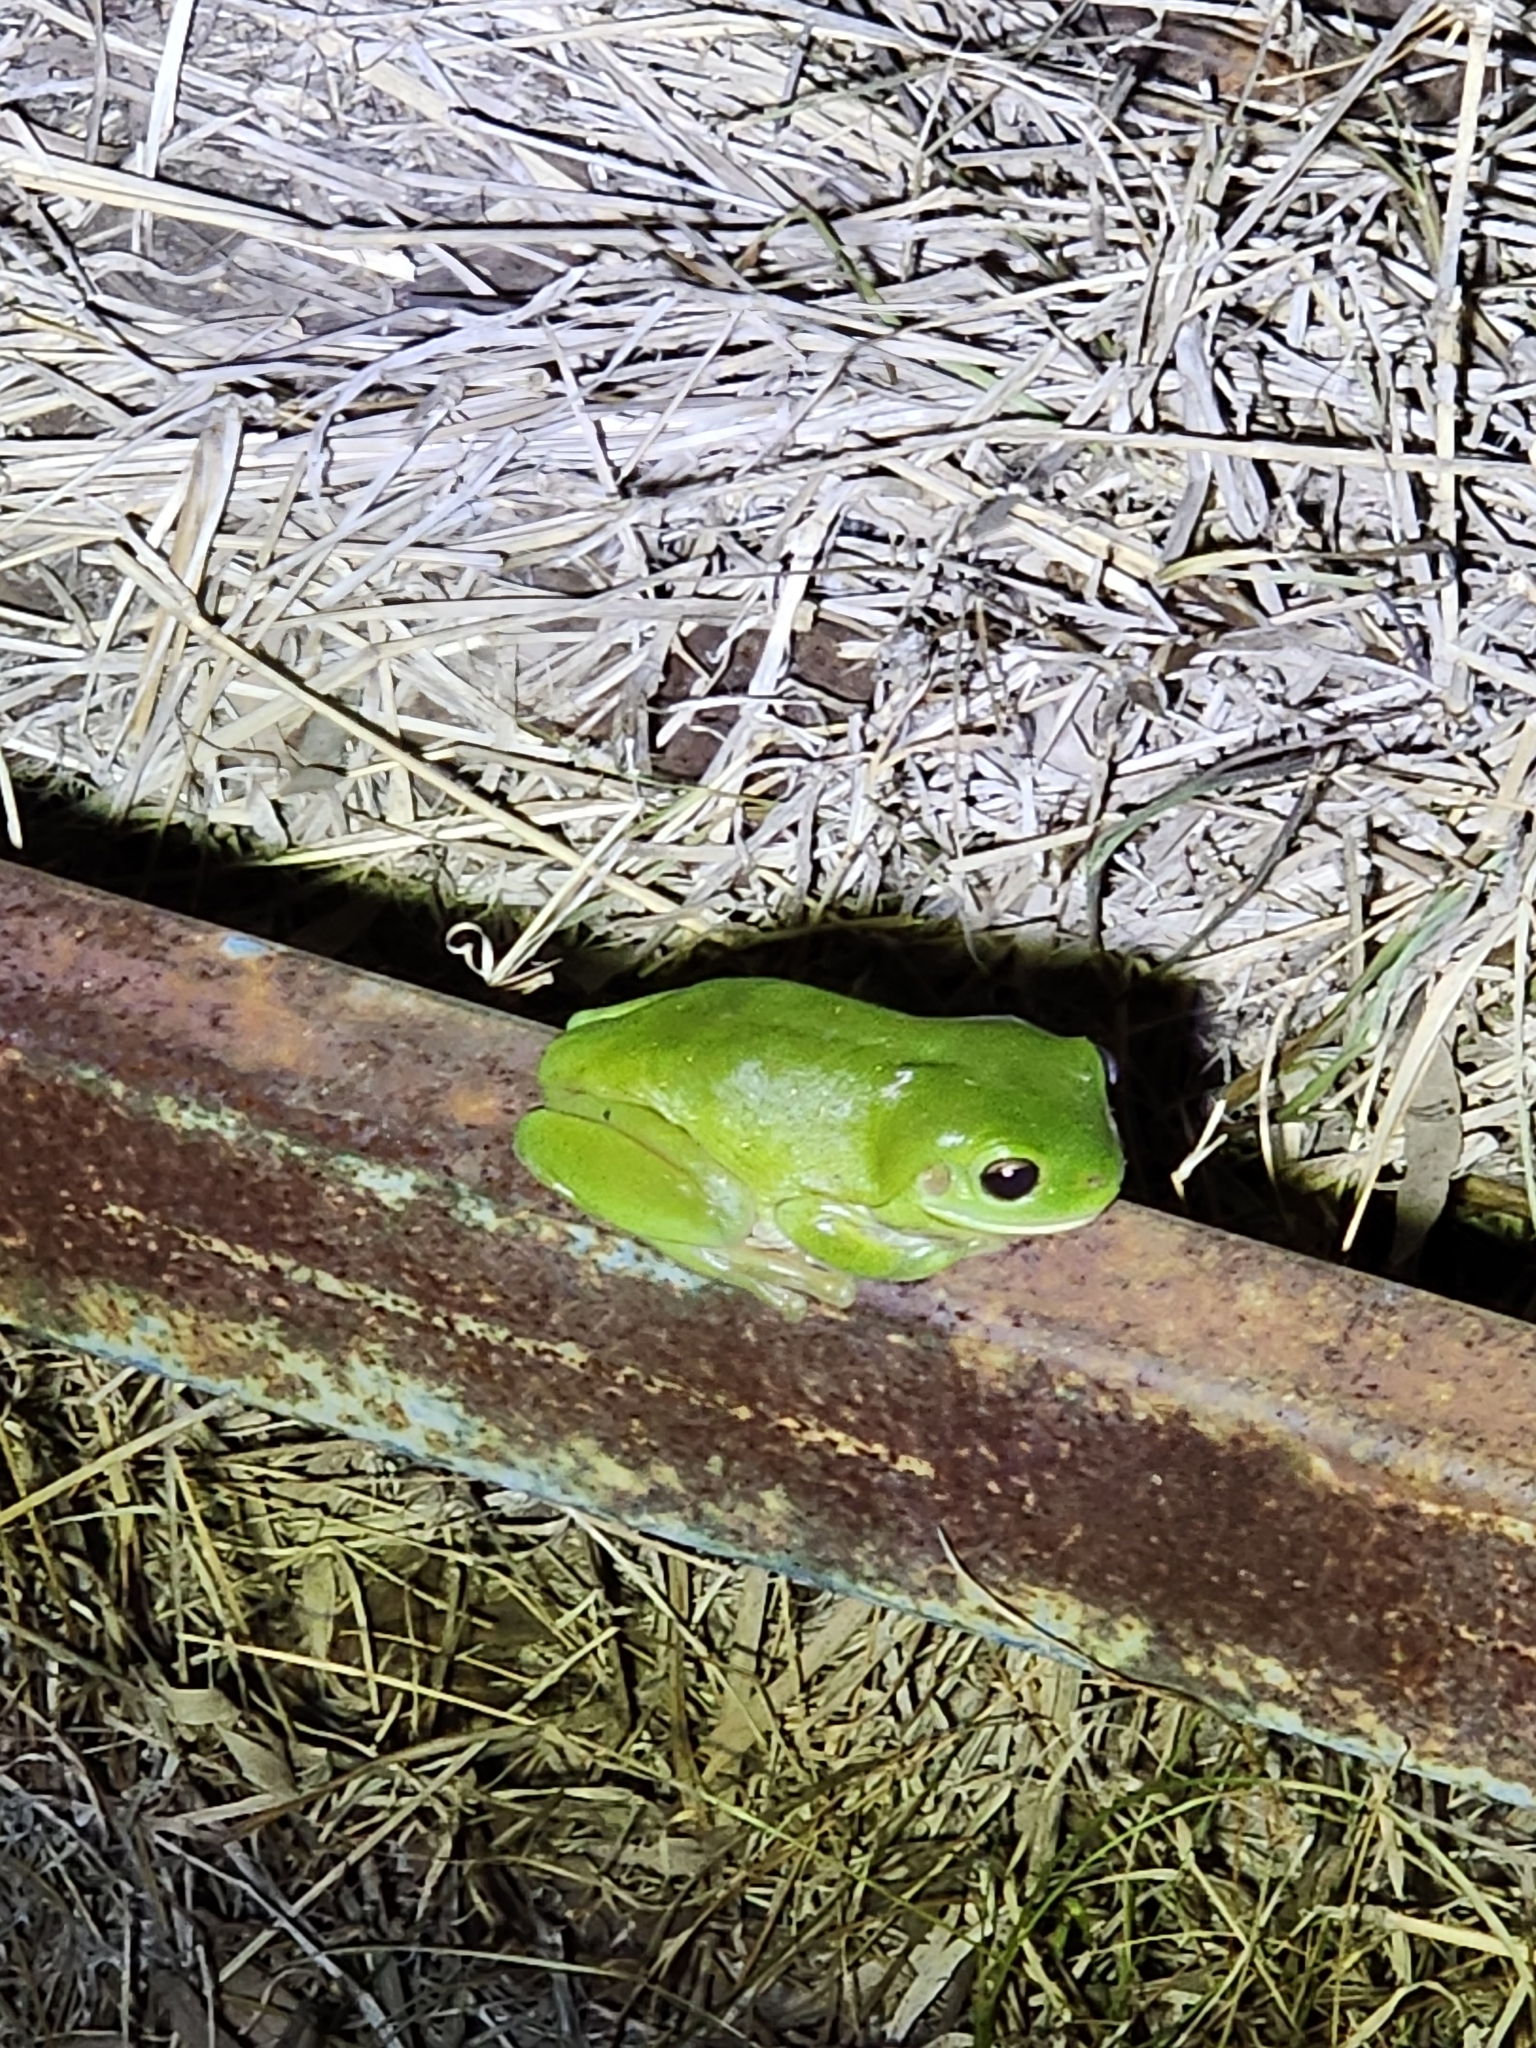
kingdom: Animalia
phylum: Chordata
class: Amphibia
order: Anura
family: Pelodryadidae
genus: Ranoidea
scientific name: Ranoidea caerulea
